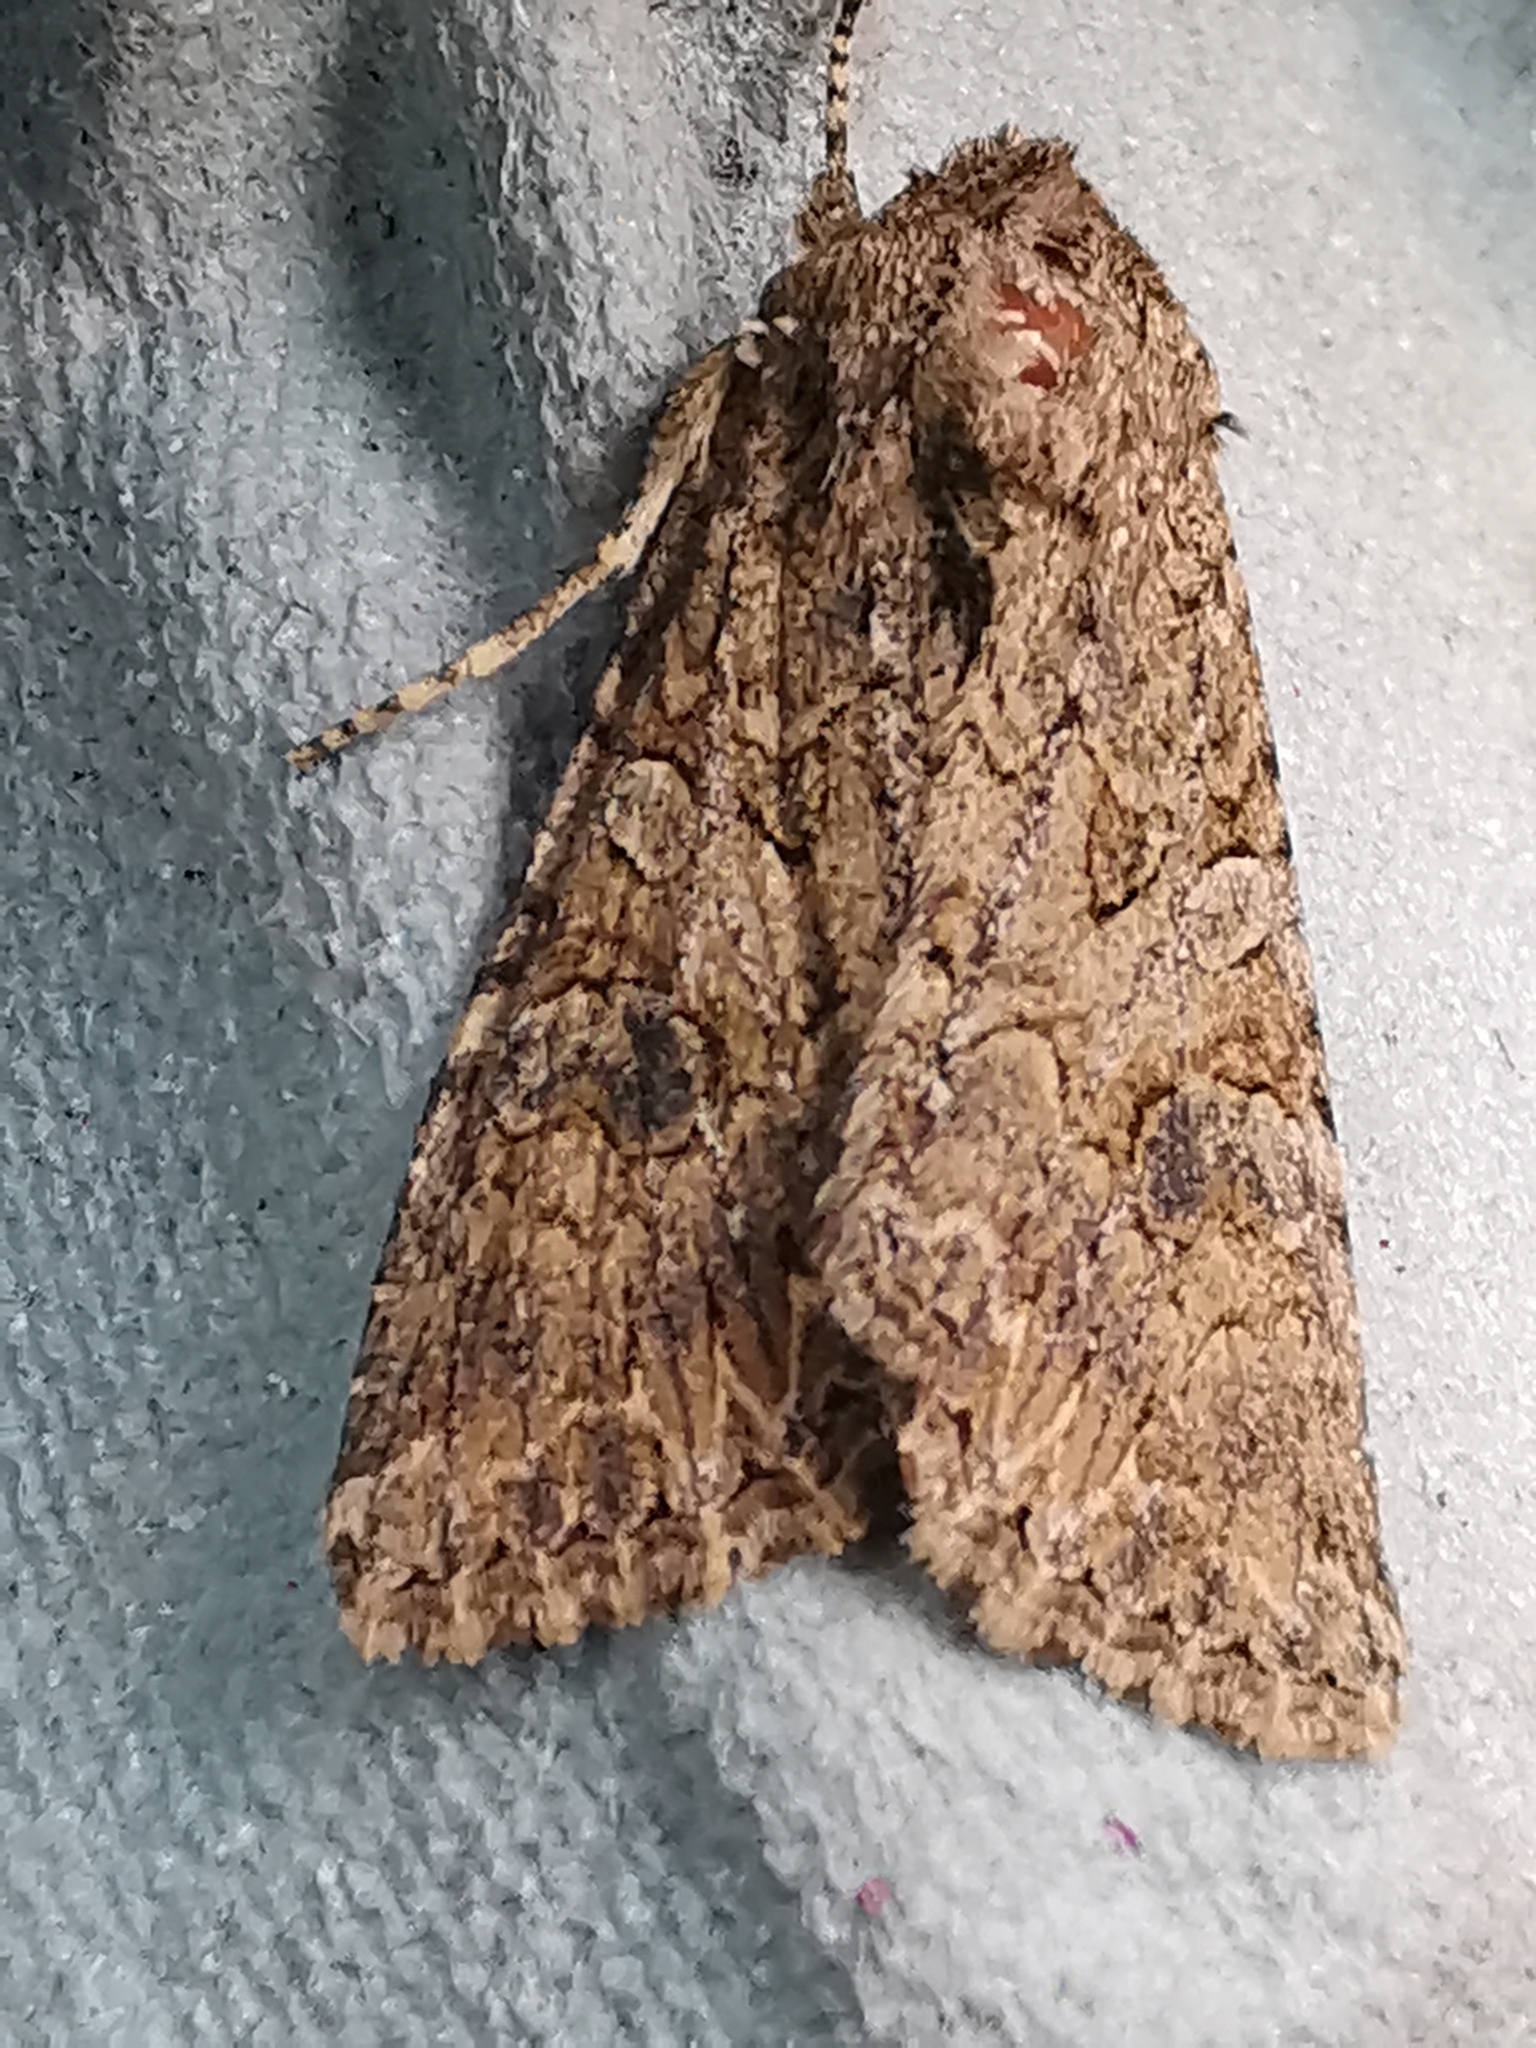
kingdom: Animalia
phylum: Arthropoda
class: Insecta
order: Lepidoptera
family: Noctuidae
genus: Anarta
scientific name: Anarta trifolii
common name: Clover cutworm moth
